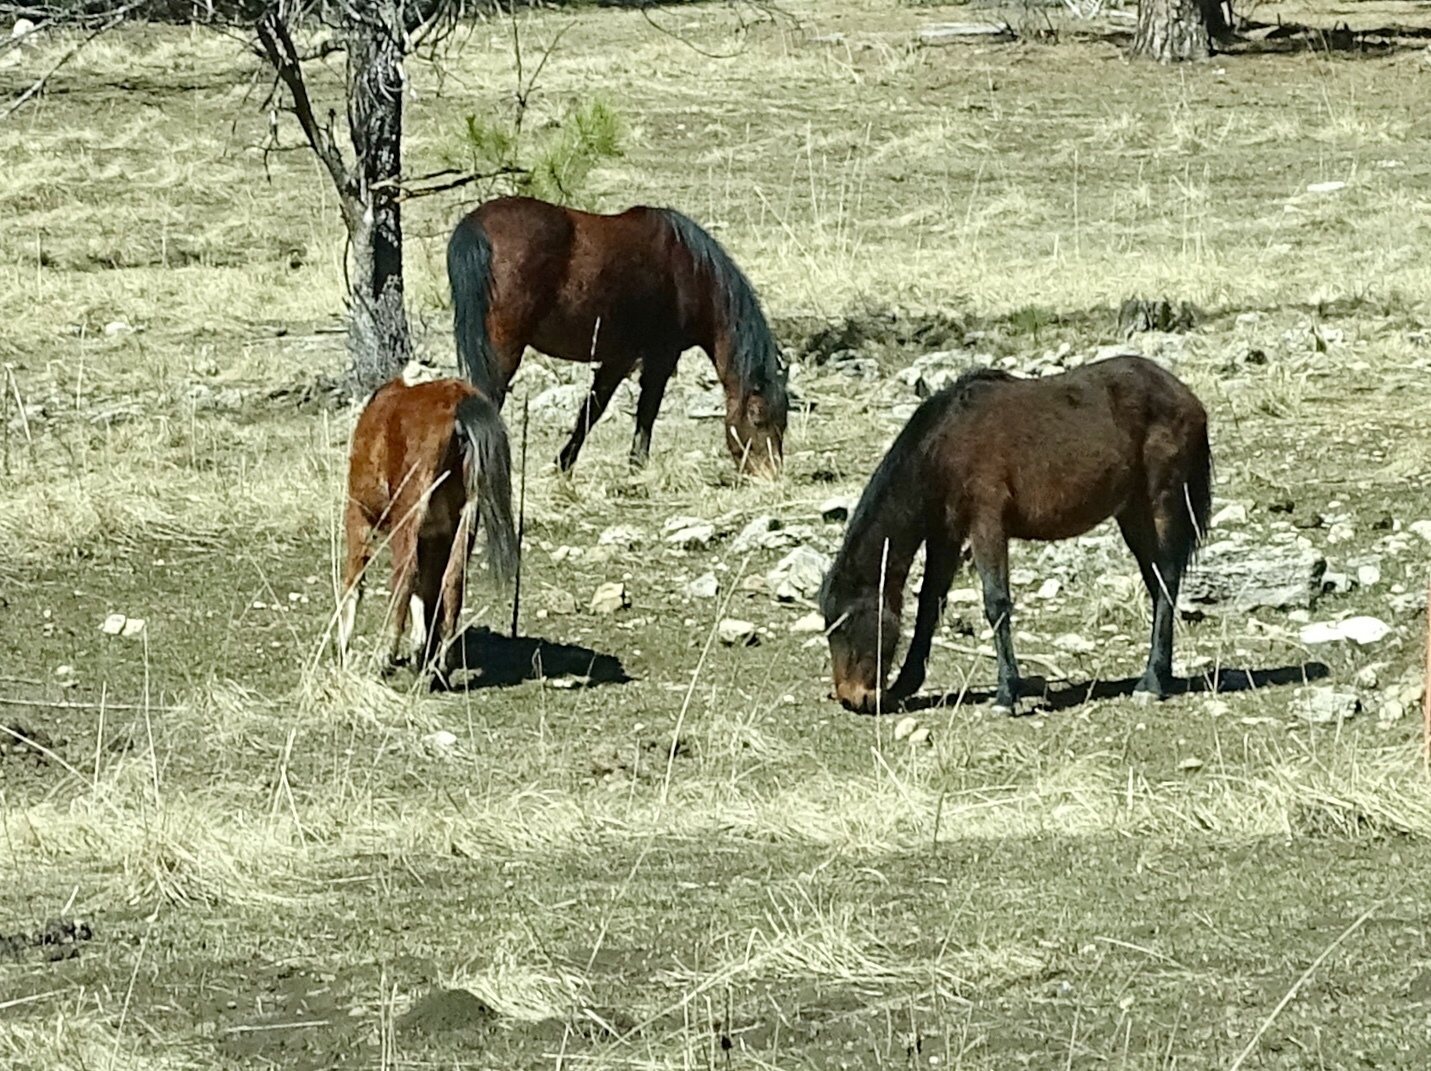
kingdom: Animalia
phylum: Chordata
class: Mammalia
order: Perissodactyla
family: Equidae
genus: Equus
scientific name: Equus caballus
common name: Horse
